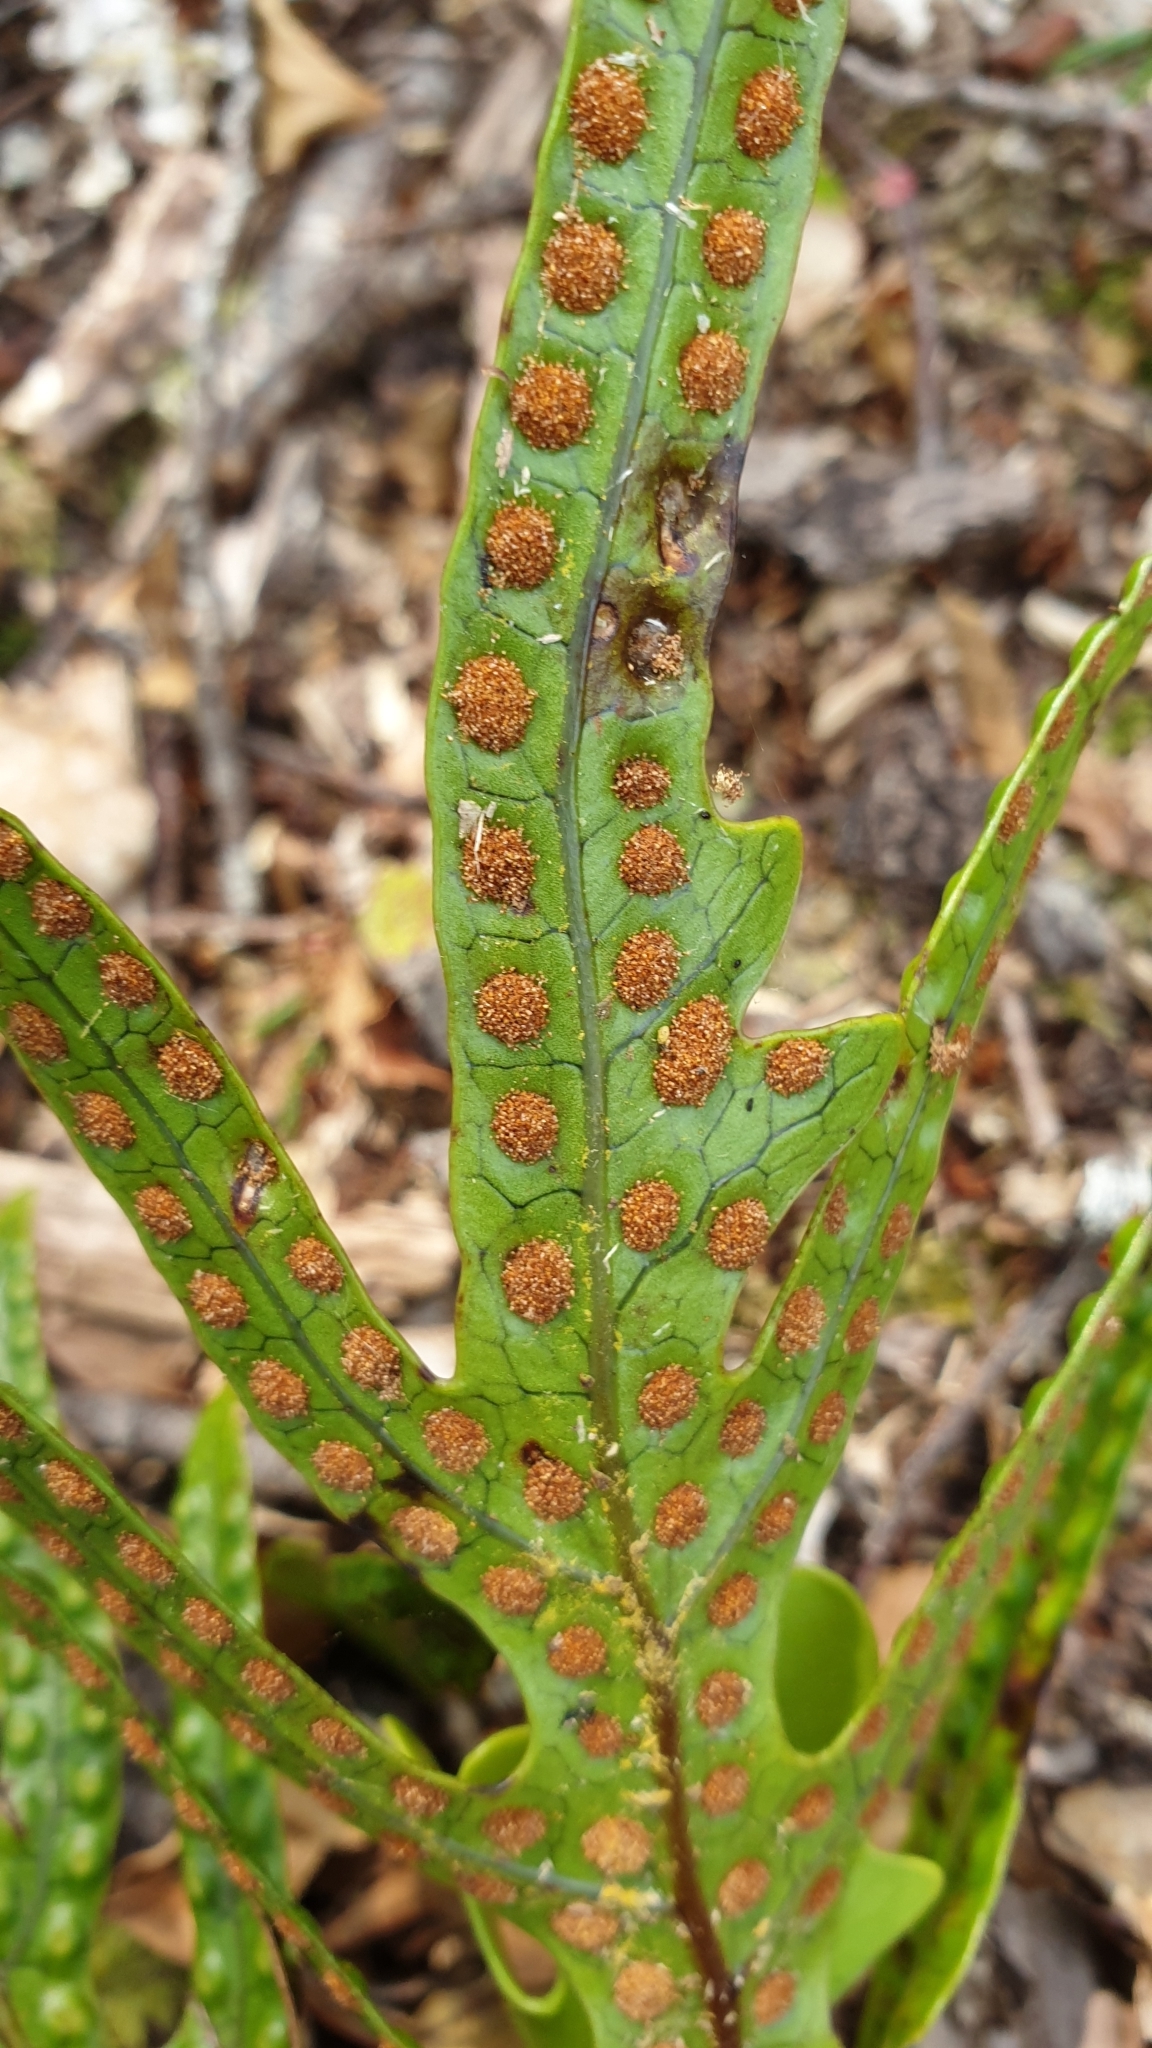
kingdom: Plantae
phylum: Tracheophyta
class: Polypodiopsida
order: Polypodiales
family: Polypodiaceae
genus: Lecanopteris
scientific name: Lecanopteris pustulata
